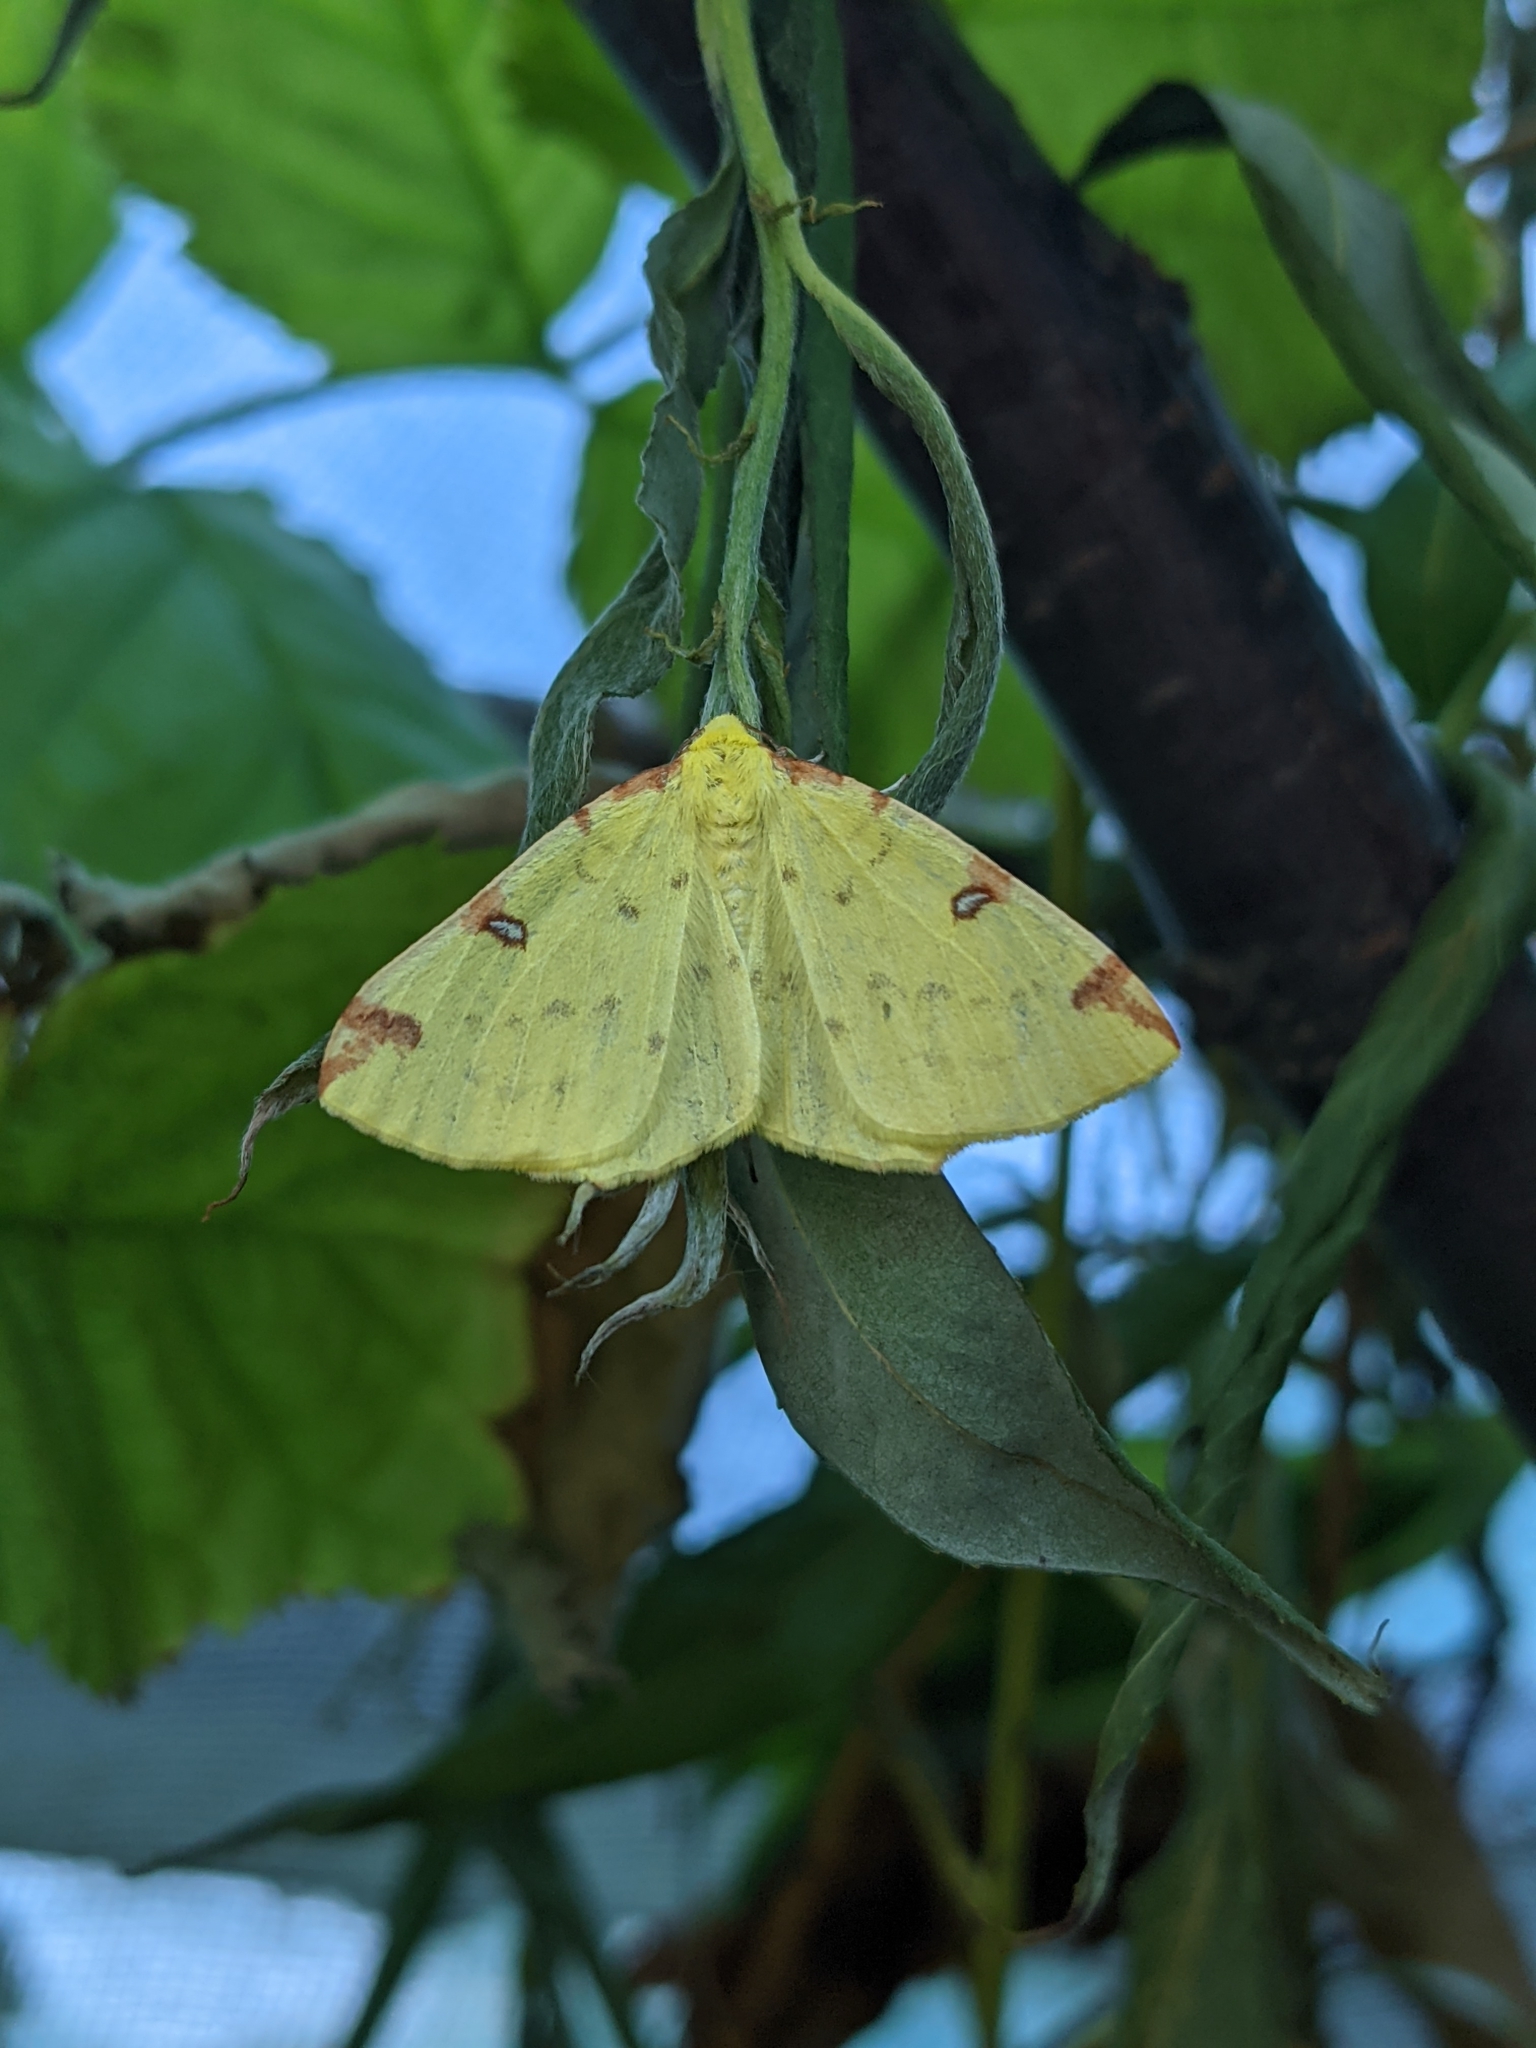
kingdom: Animalia
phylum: Arthropoda
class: Insecta
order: Lepidoptera
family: Geometridae
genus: Opisthograptis
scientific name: Opisthograptis luteolata
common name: Brimstone moth
